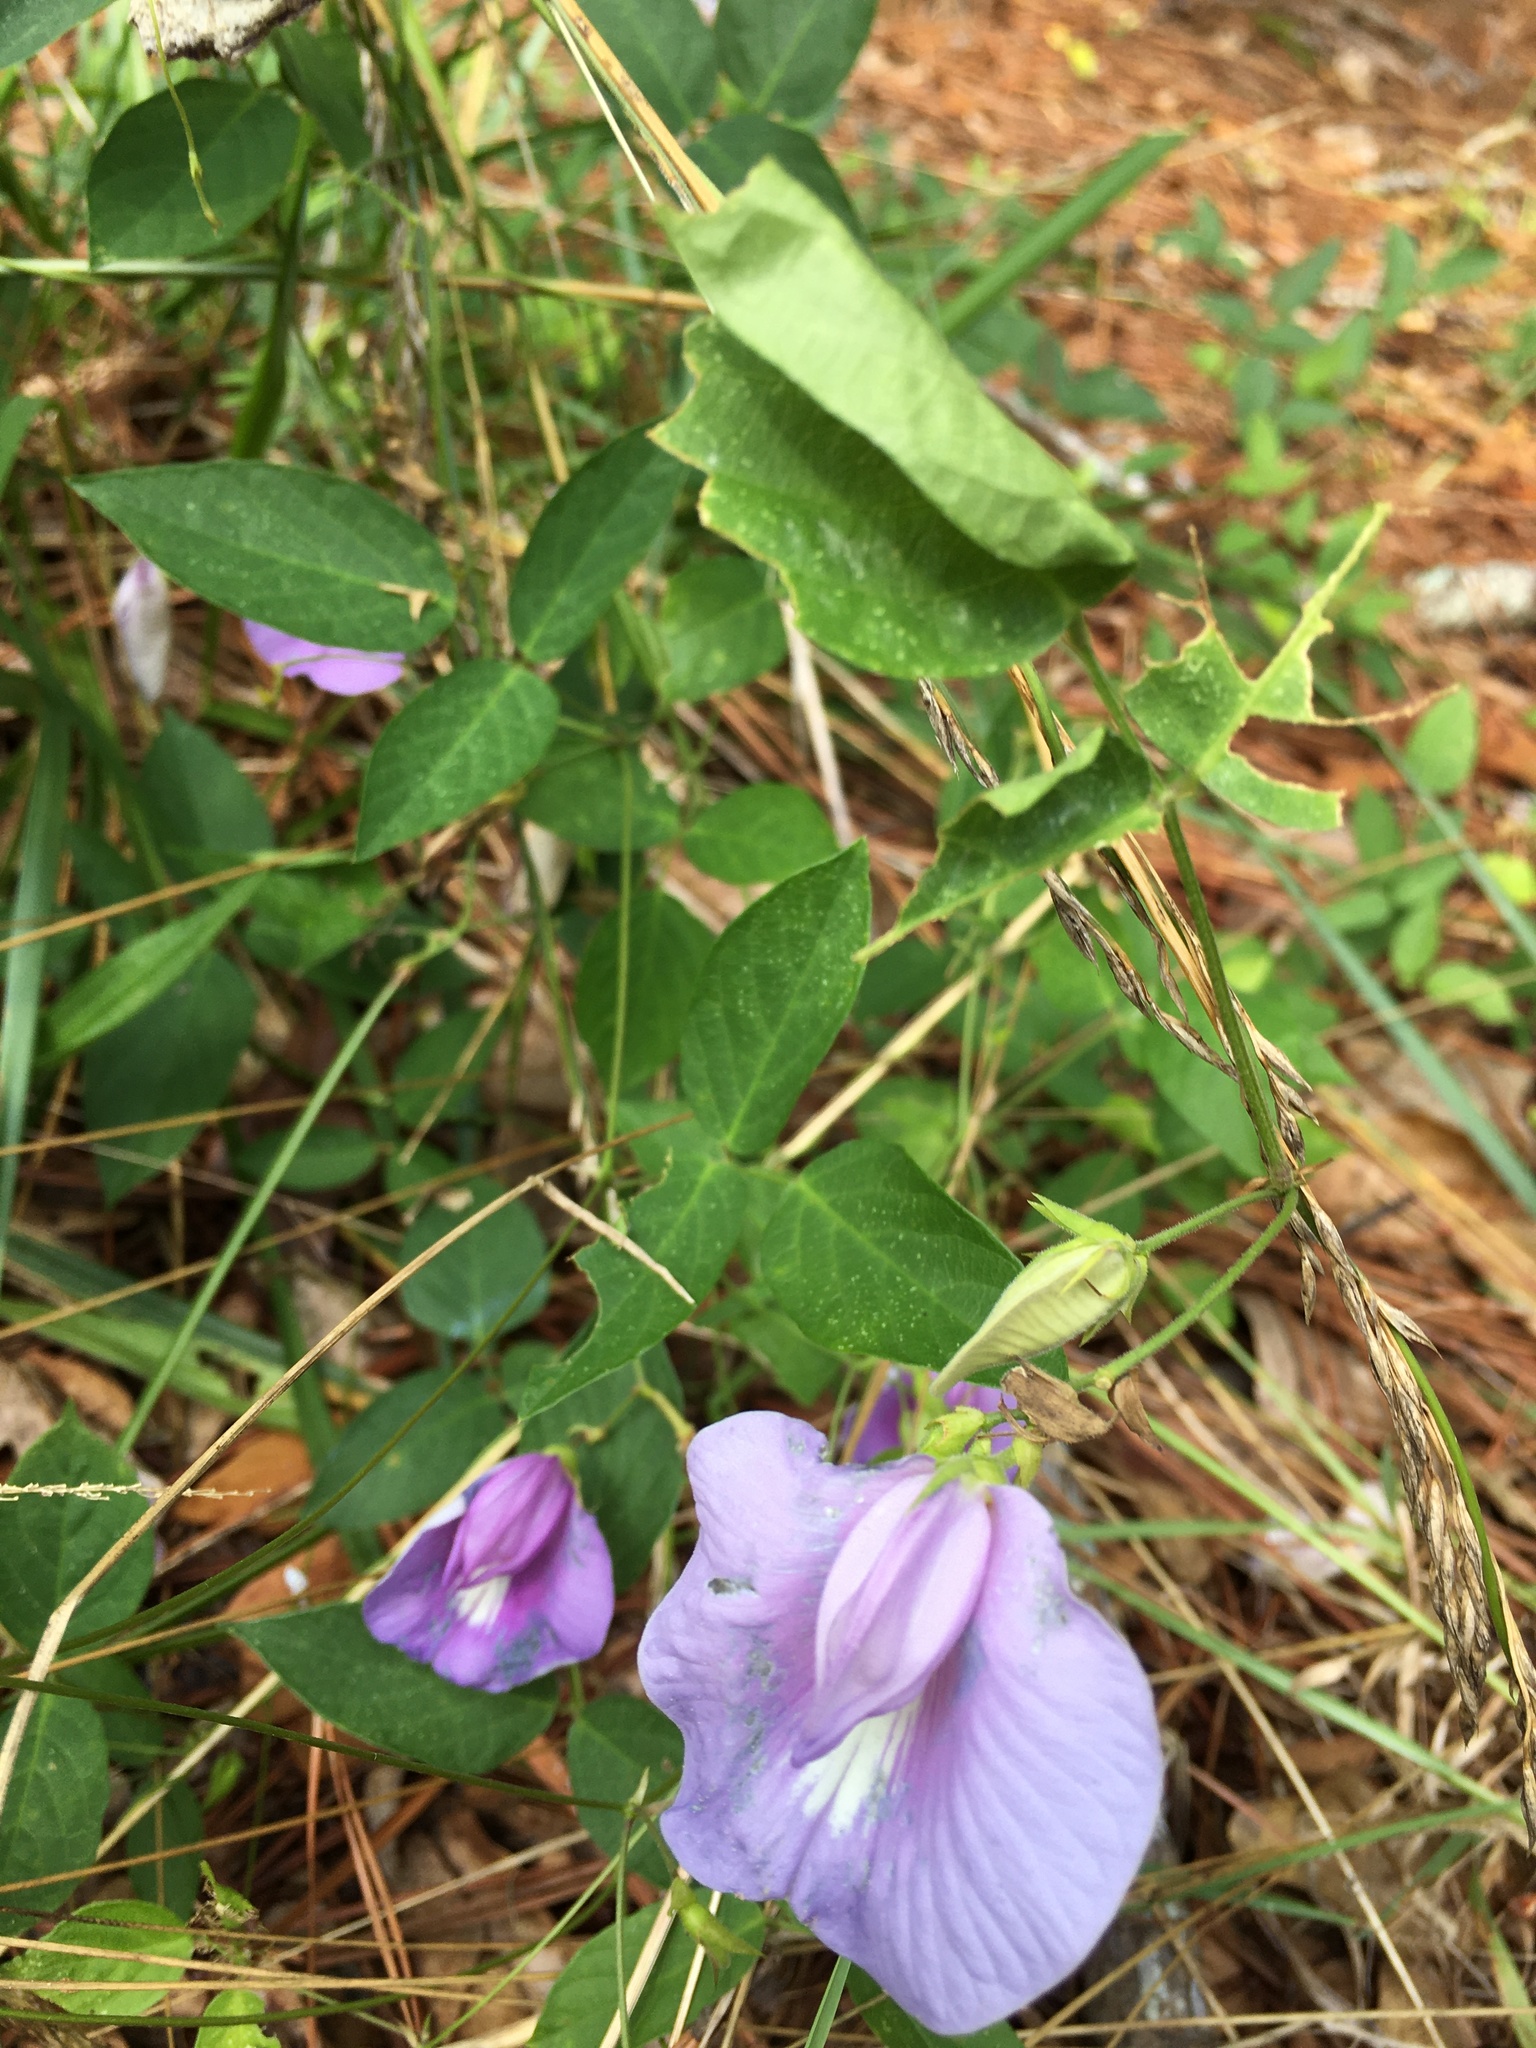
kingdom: Plantae
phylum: Tracheophyta
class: Magnoliopsida
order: Fabales
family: Fabaceae
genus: Centrosema
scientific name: Centrosema virginianum
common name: Butterfly-pea
